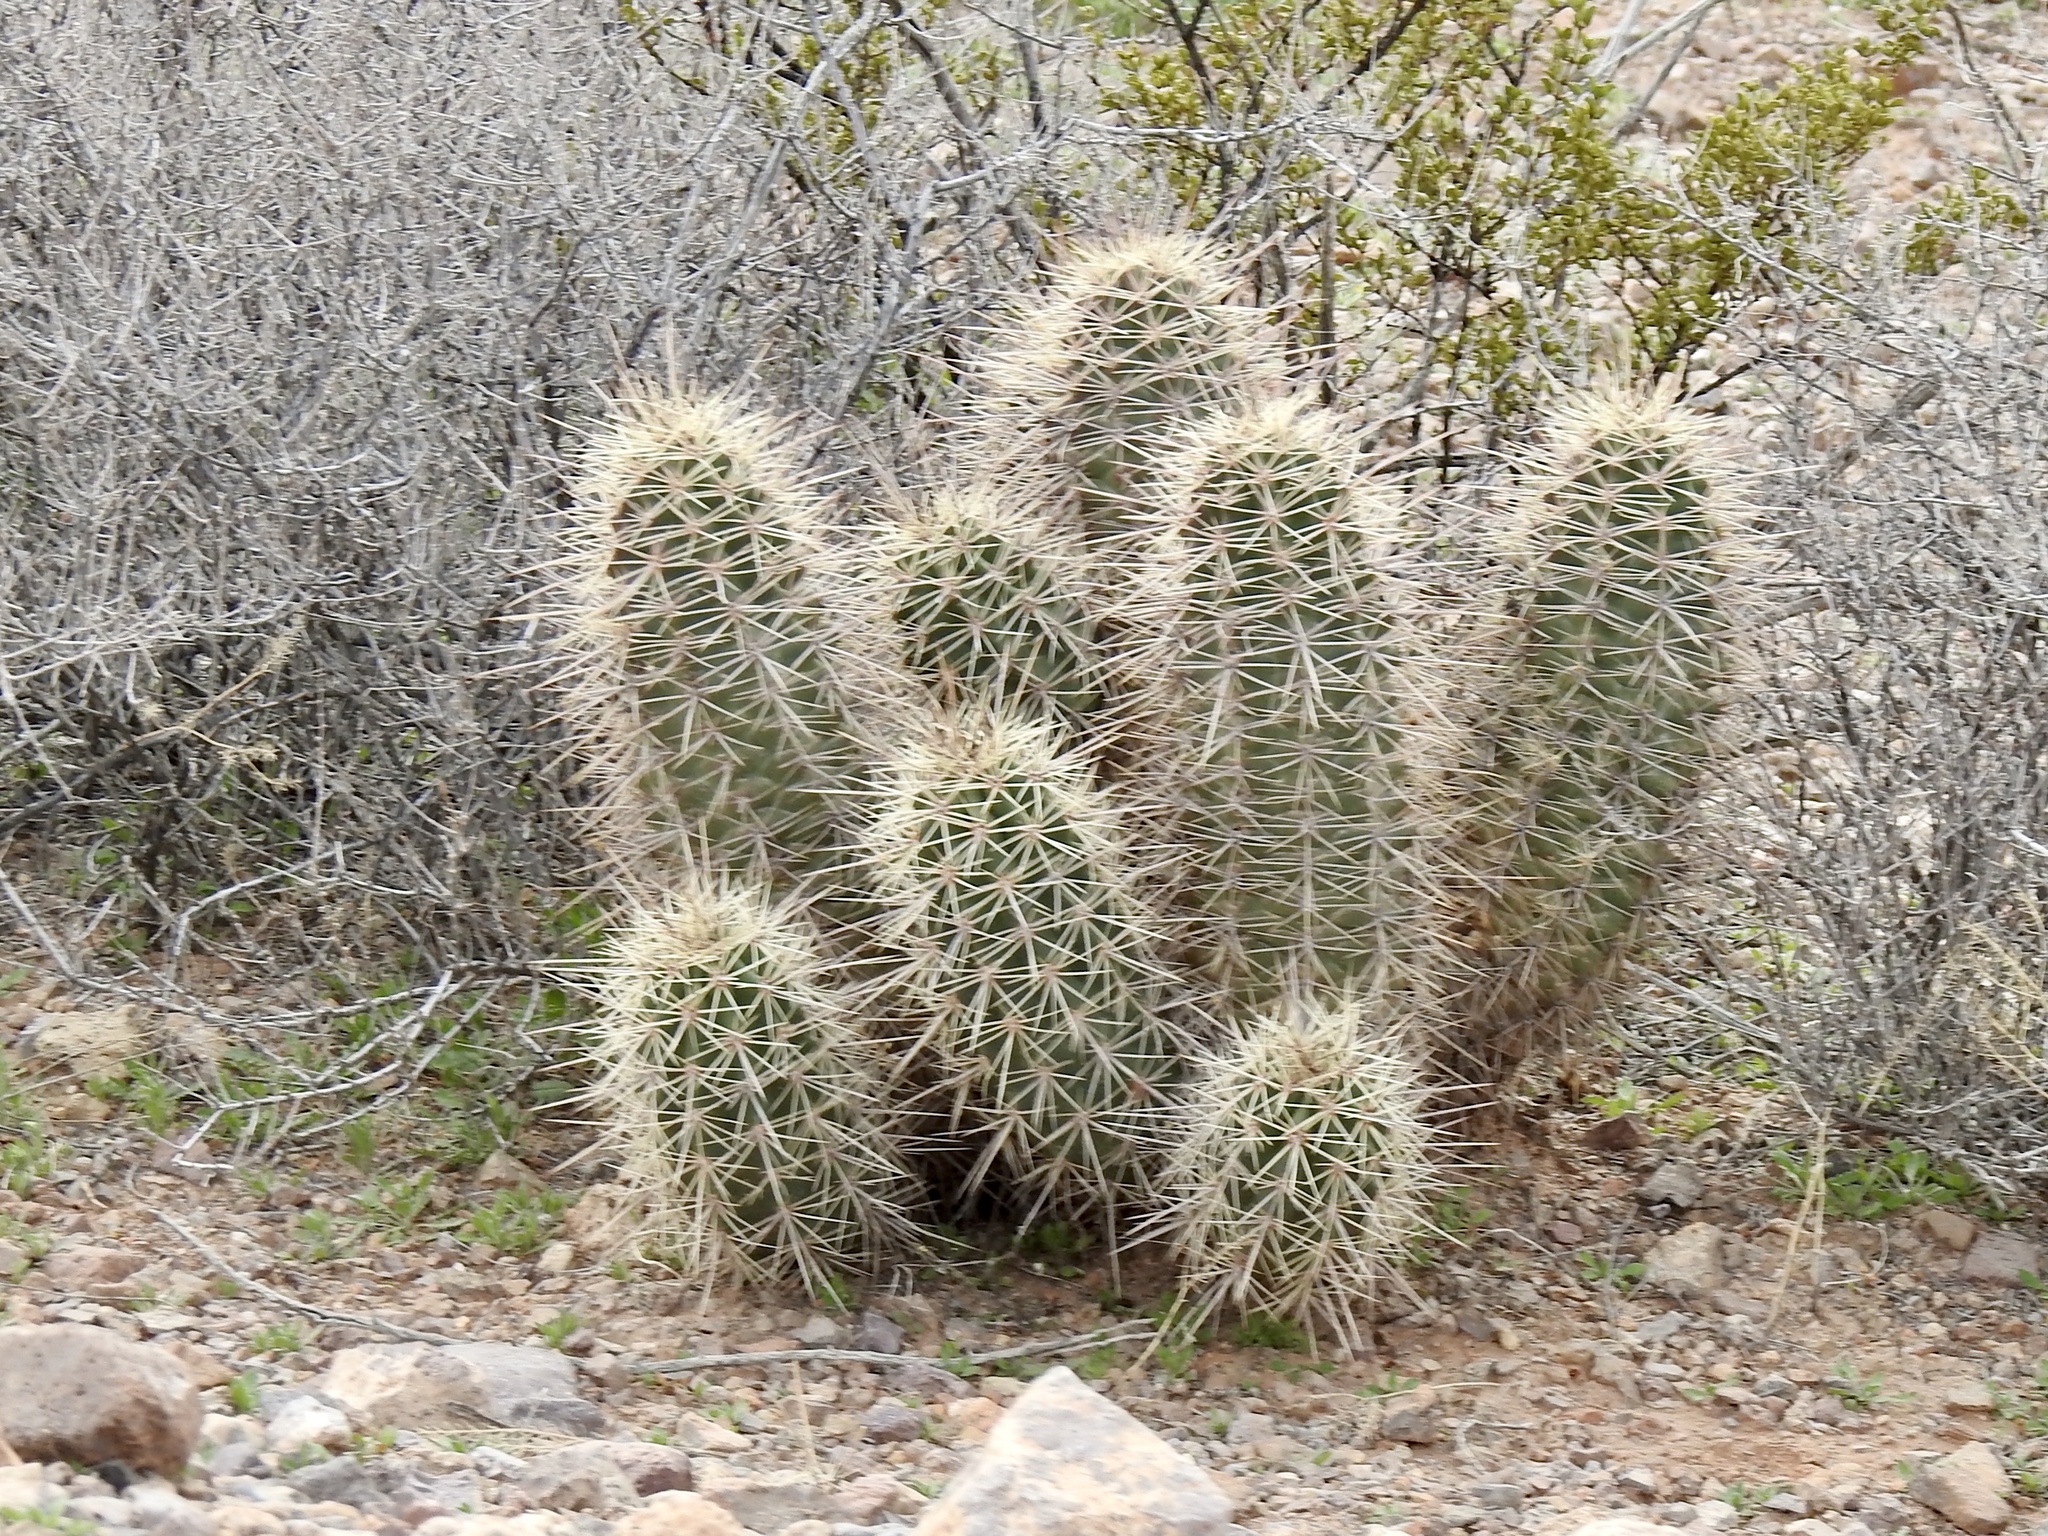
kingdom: Plantae
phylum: Tracheophyta
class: Magnoliopsida
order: Caryophyllales
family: Cactaceae
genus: Echinocereus
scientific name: Echinocereus coccineus
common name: Scarlet hedgehog cactus
